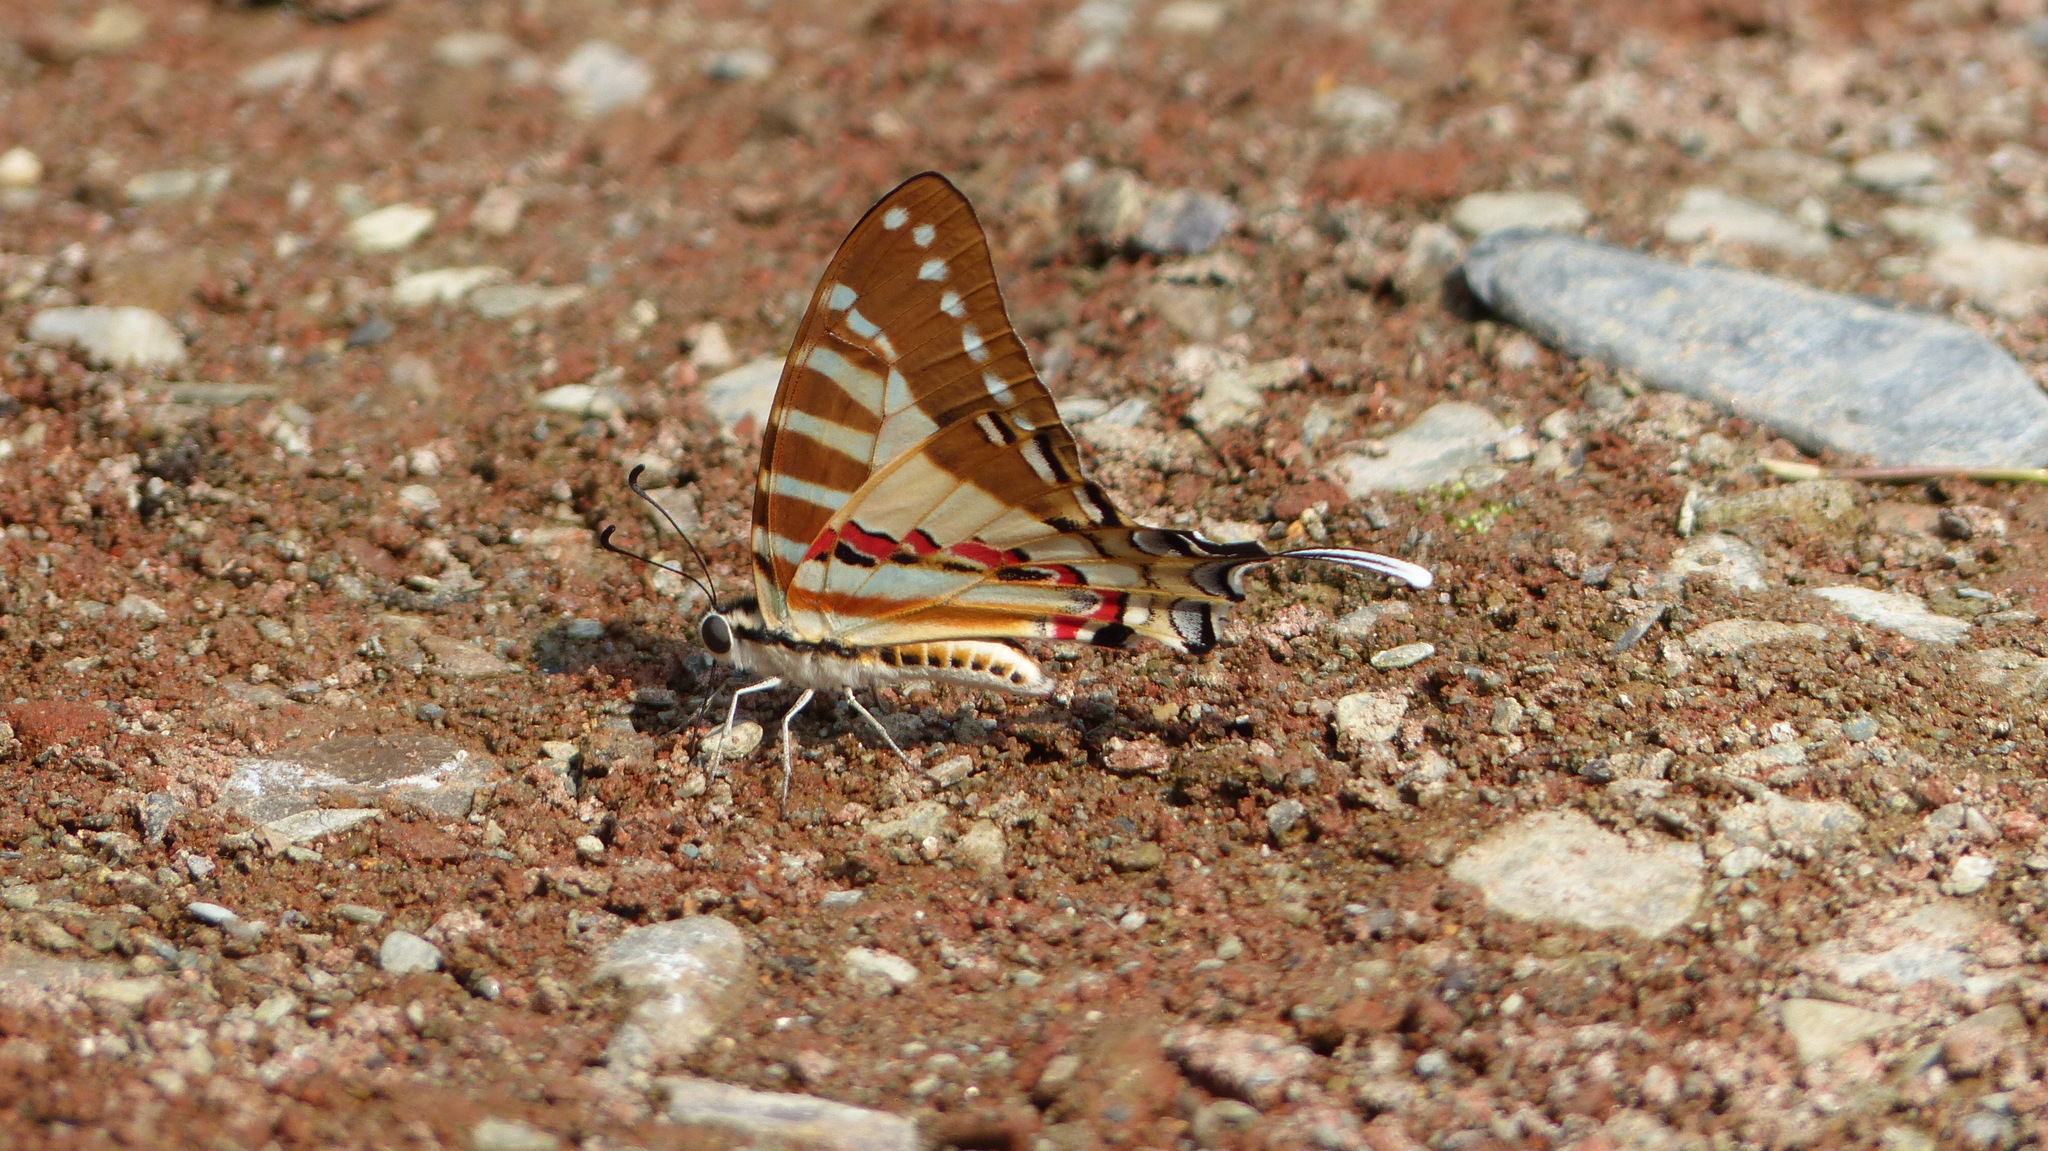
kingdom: Animalia
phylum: Arthropoda
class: Insecta
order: Lepidoptera
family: Papilionidae
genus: Graphium
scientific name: Graphium nomius
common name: Spot swordtail
